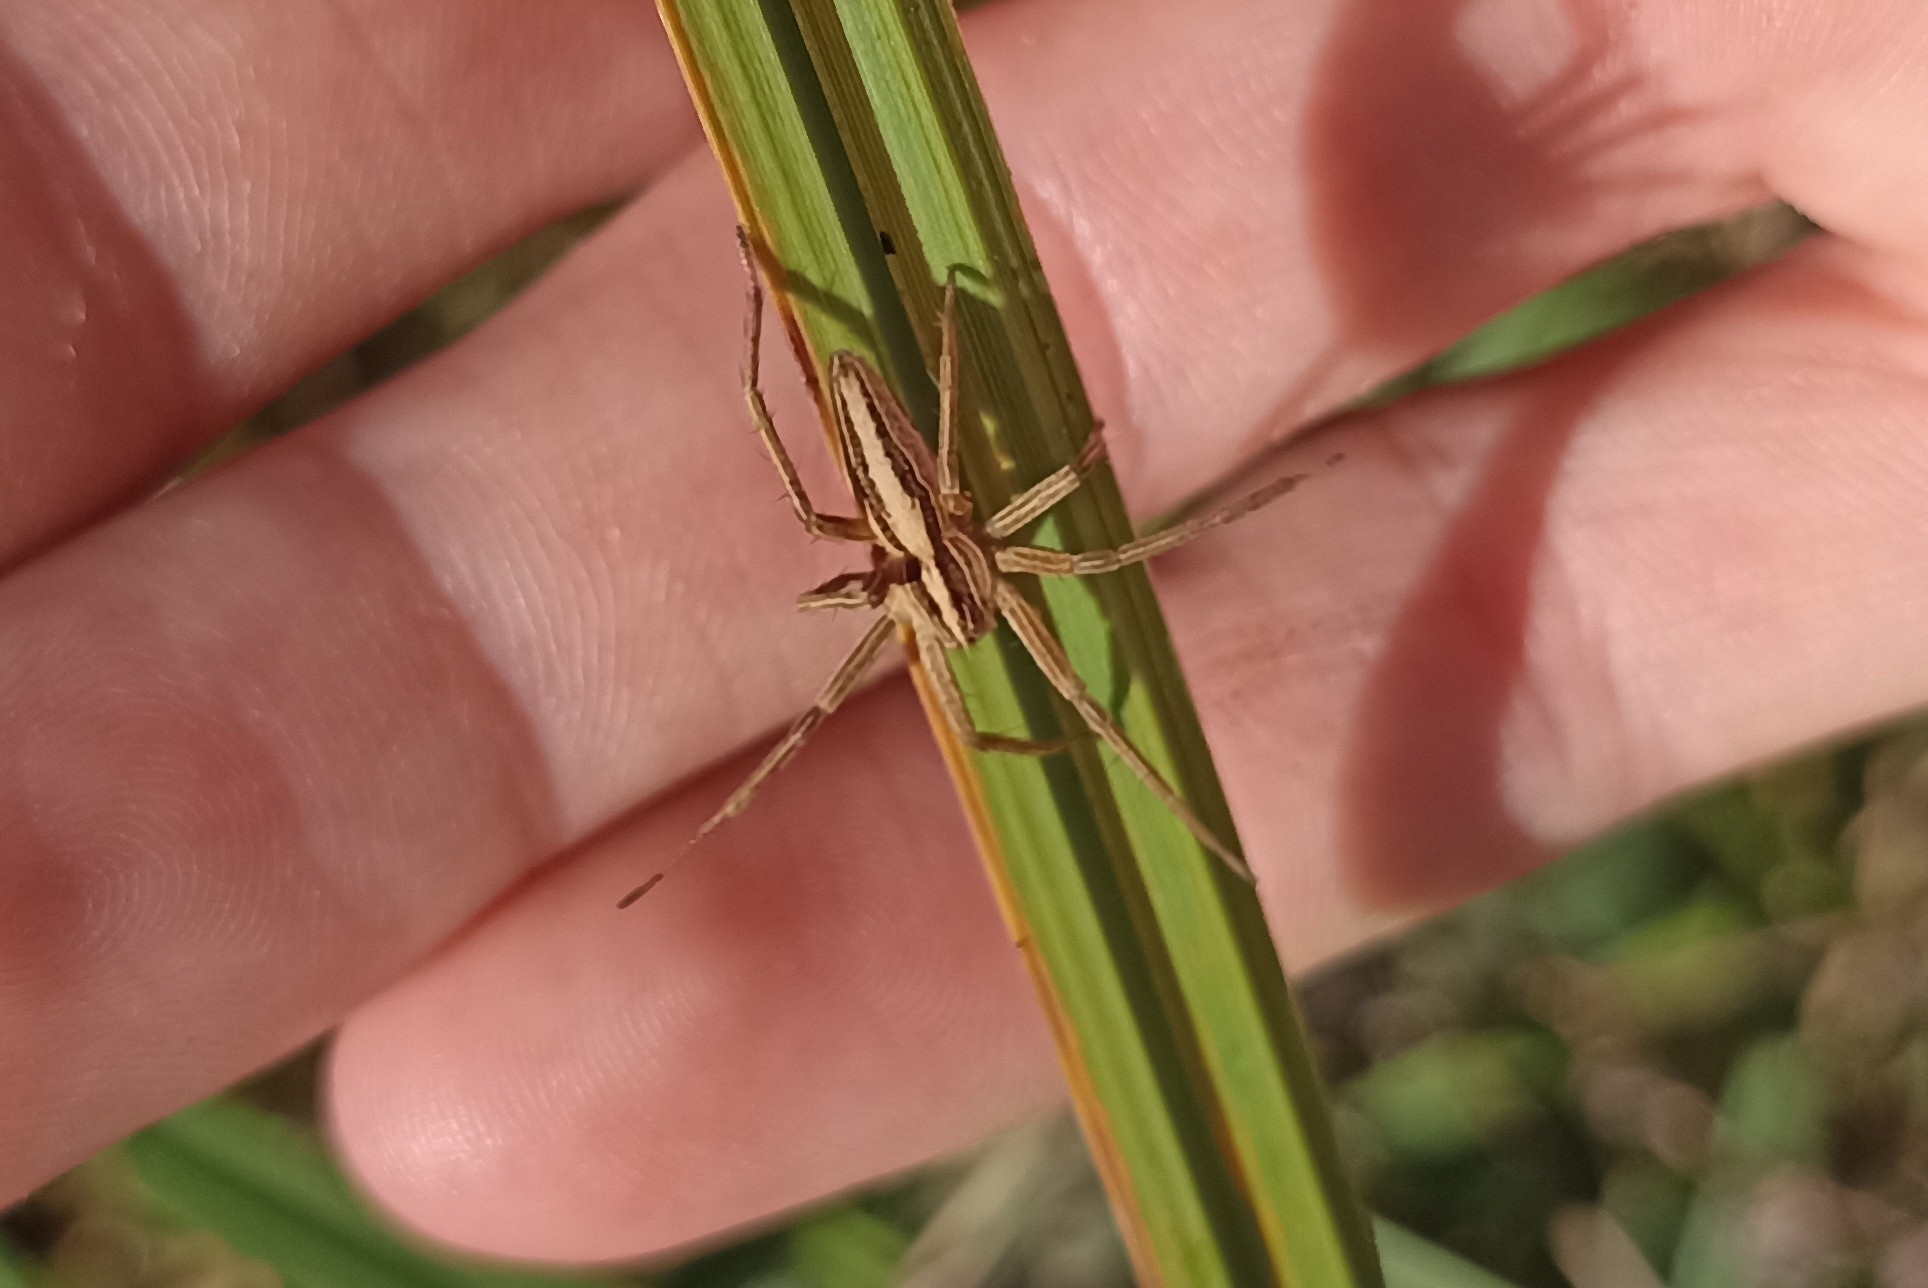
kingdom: Animalia
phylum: Arthropoda
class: Arachnida
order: Araneae
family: Pisauridae
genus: Pisaura
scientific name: Pisaura mirabilis
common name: Tent spider
